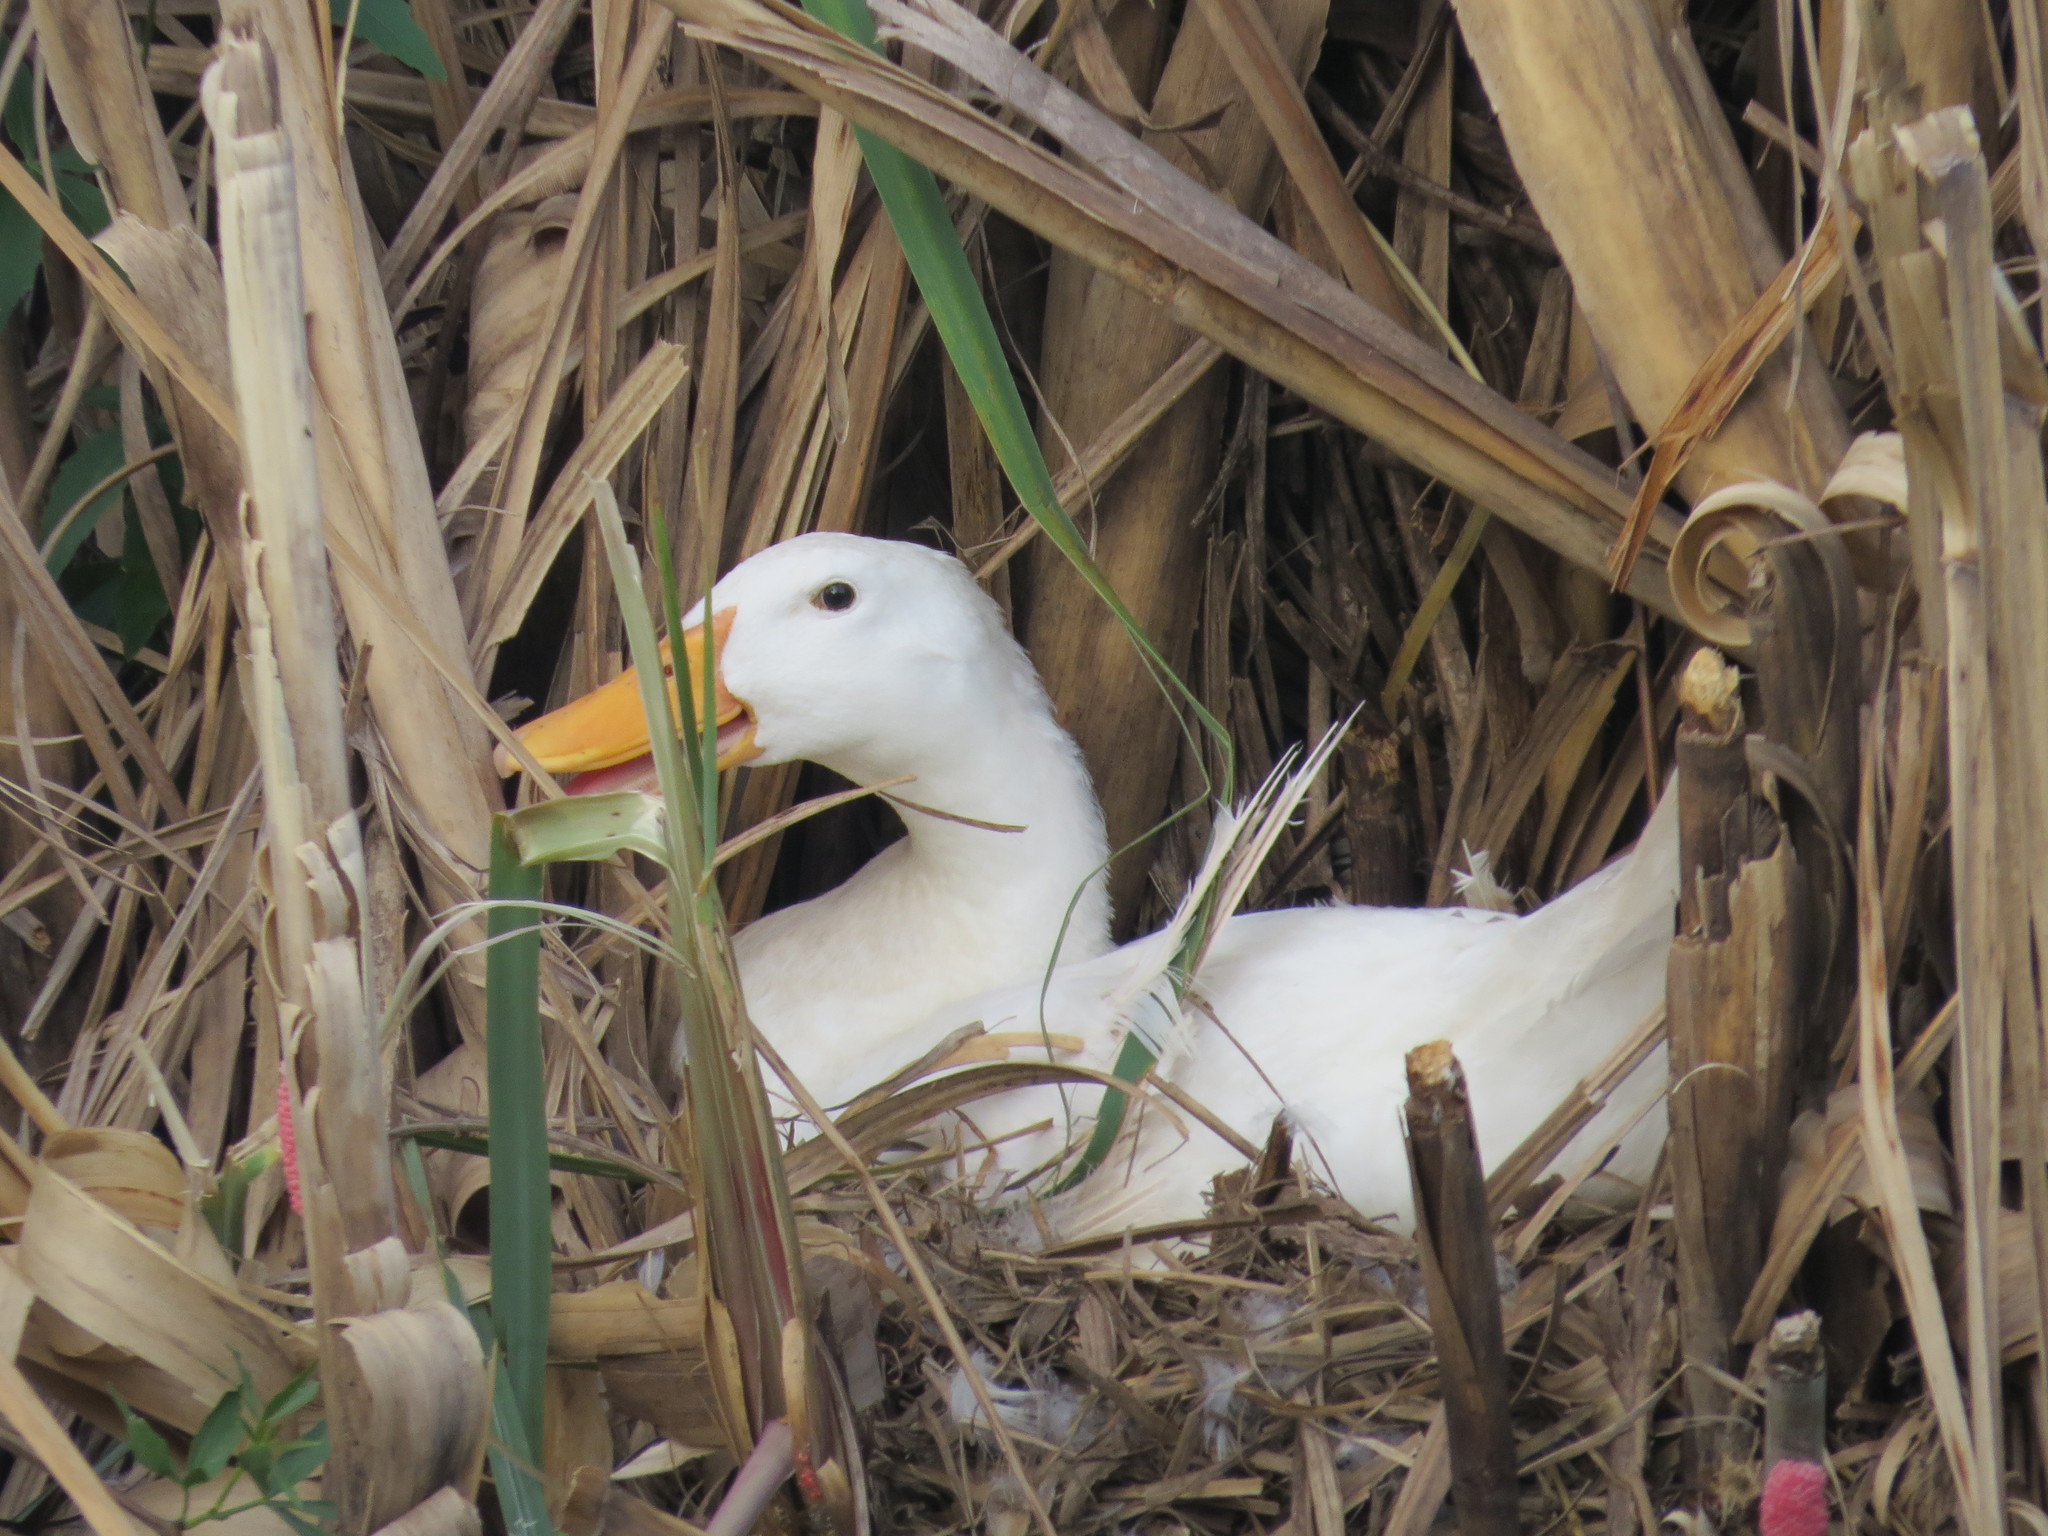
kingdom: Animalia
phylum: Chordata
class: Aves
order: Anseriformes
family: Anatidae
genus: Anas
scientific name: Anas platyrhynchos
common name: Mallard
